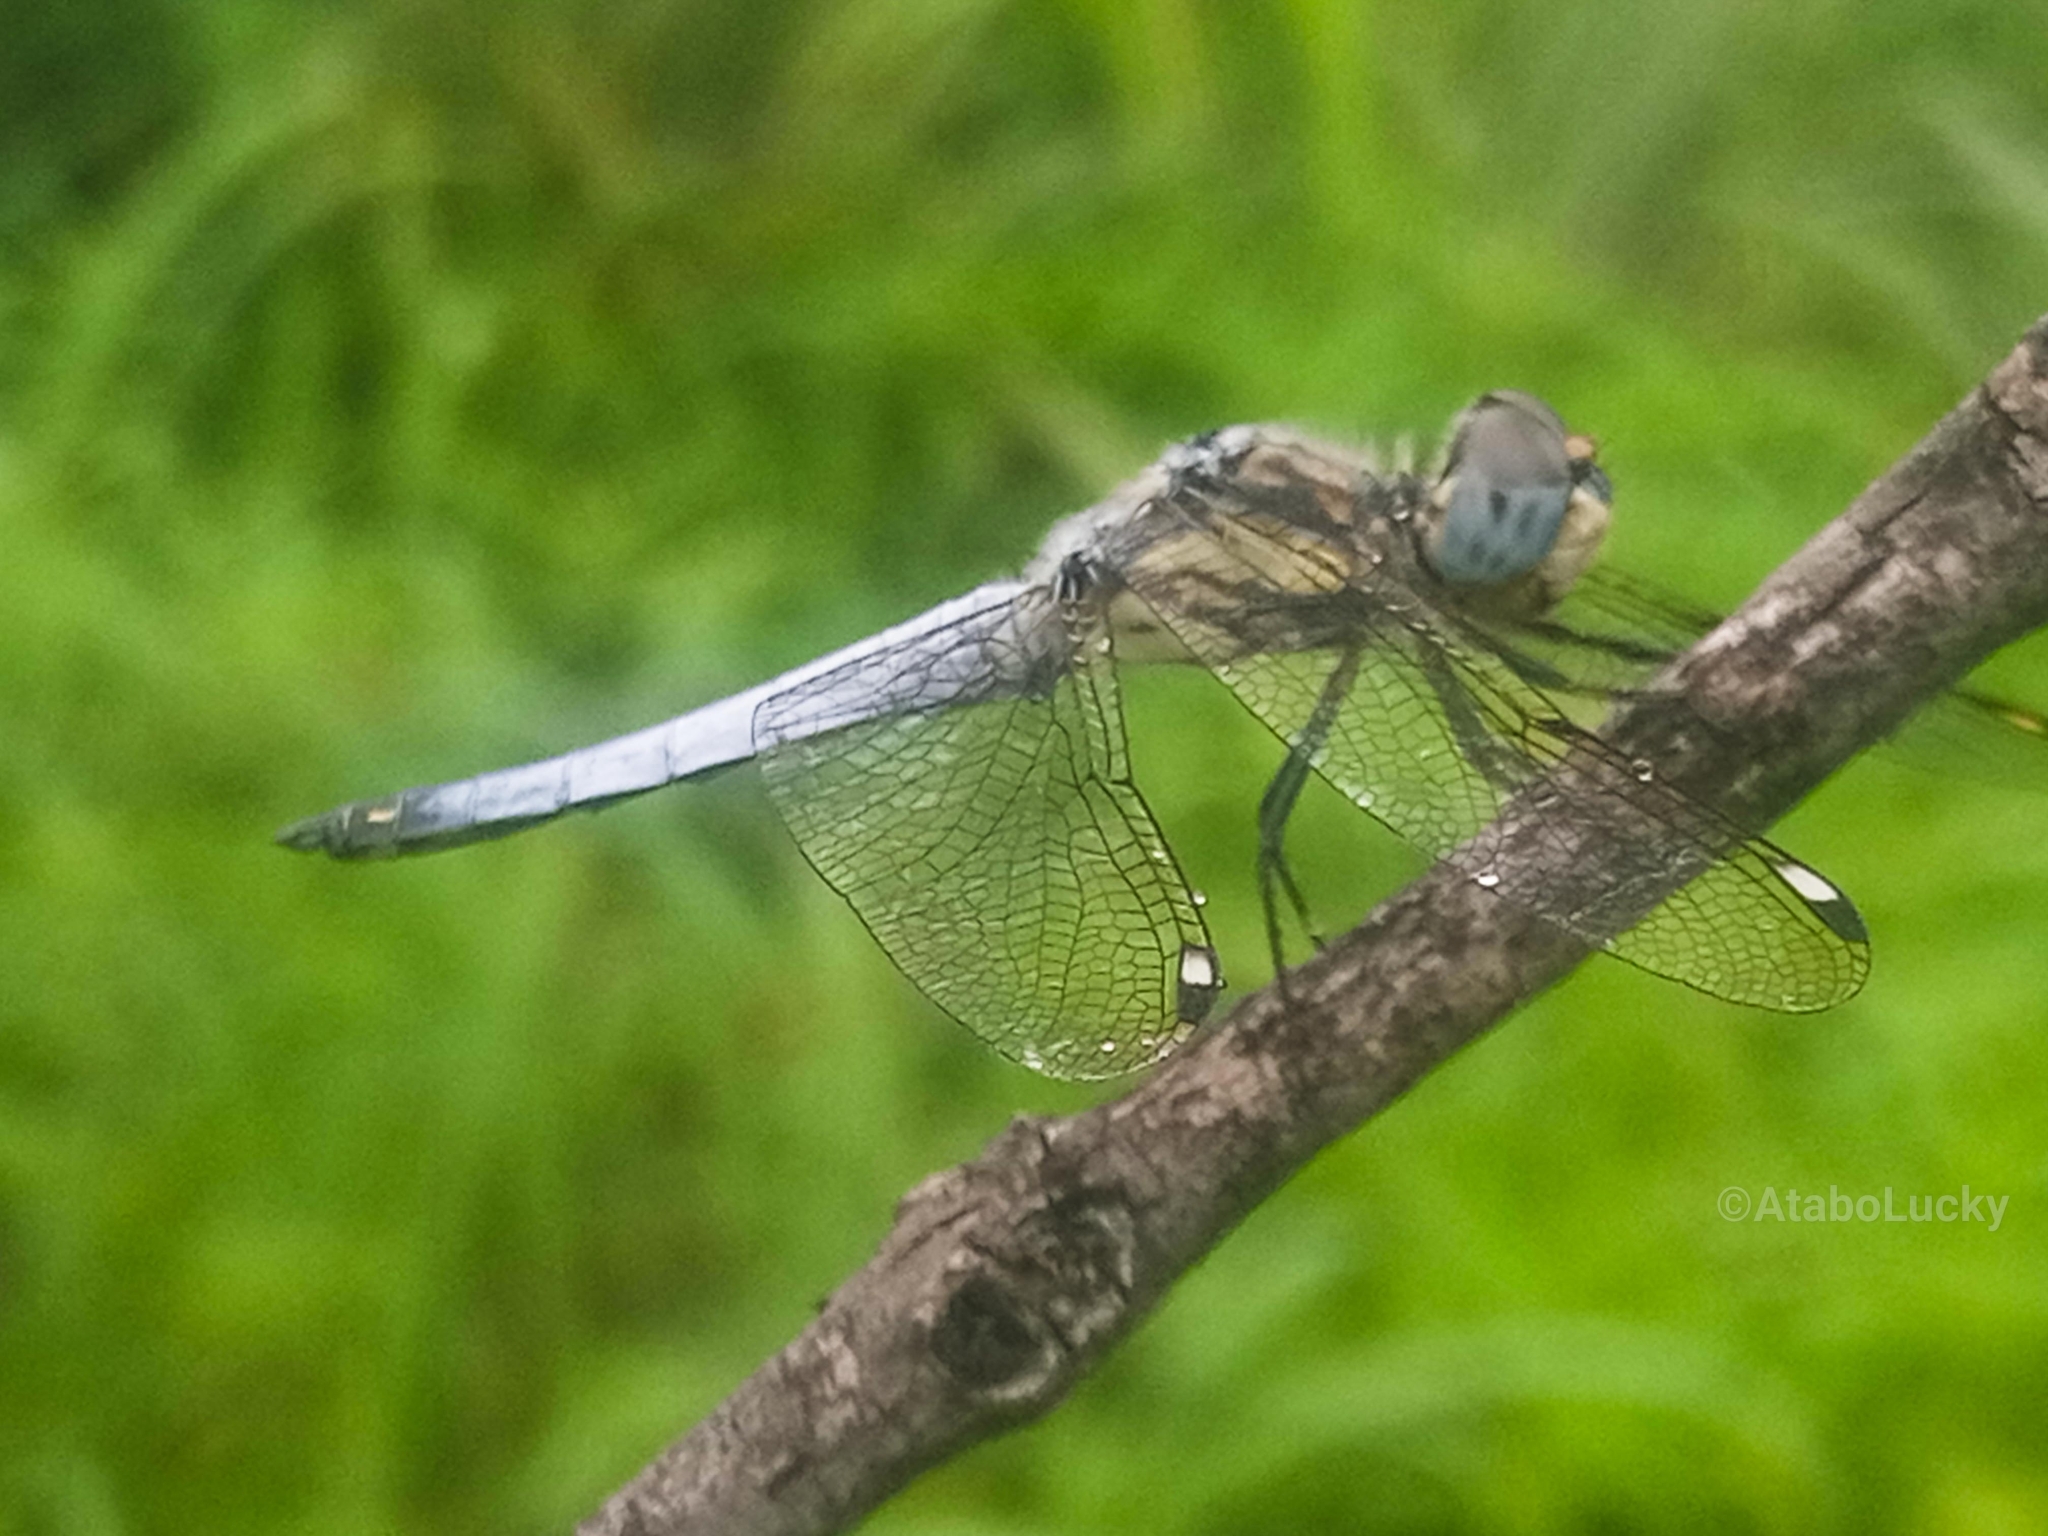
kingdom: Animalia
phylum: Arthropoda
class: Insecta
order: Odonata
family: Libellulidae
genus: Palpopleura
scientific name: Palpopleura deceptor
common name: Deceptive widow
